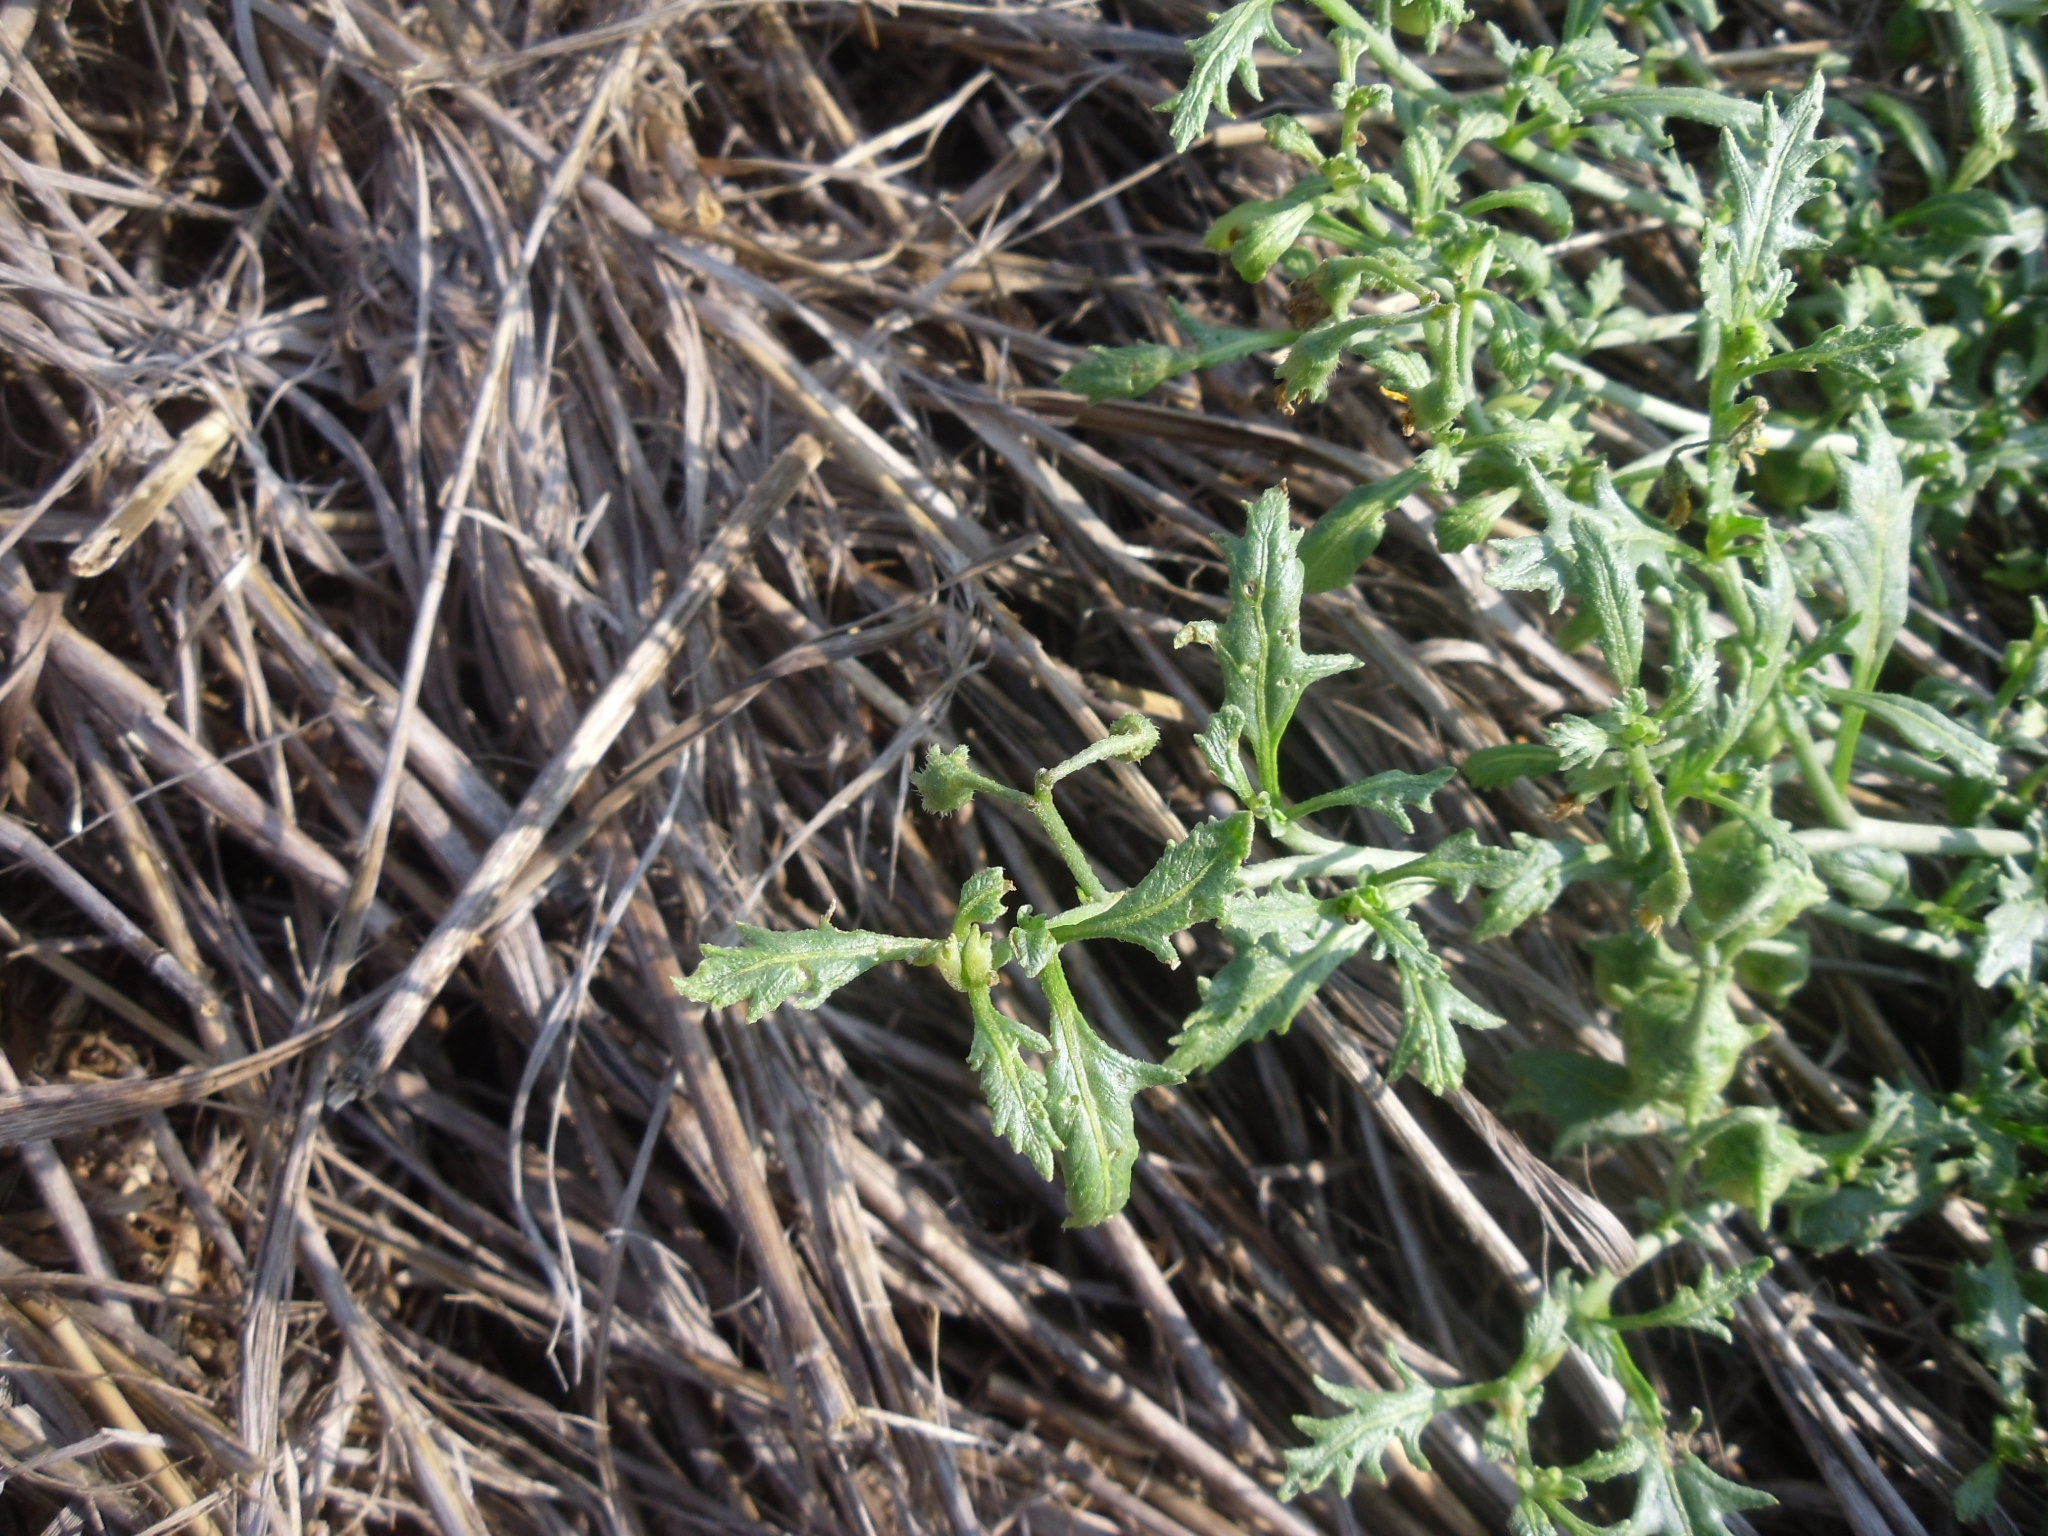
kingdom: Plantae
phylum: Tracheophyta
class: Magnoliopsida
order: Solanales
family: Solanaceae
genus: Solanum
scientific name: Solanum triflorum
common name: Small nightshade
